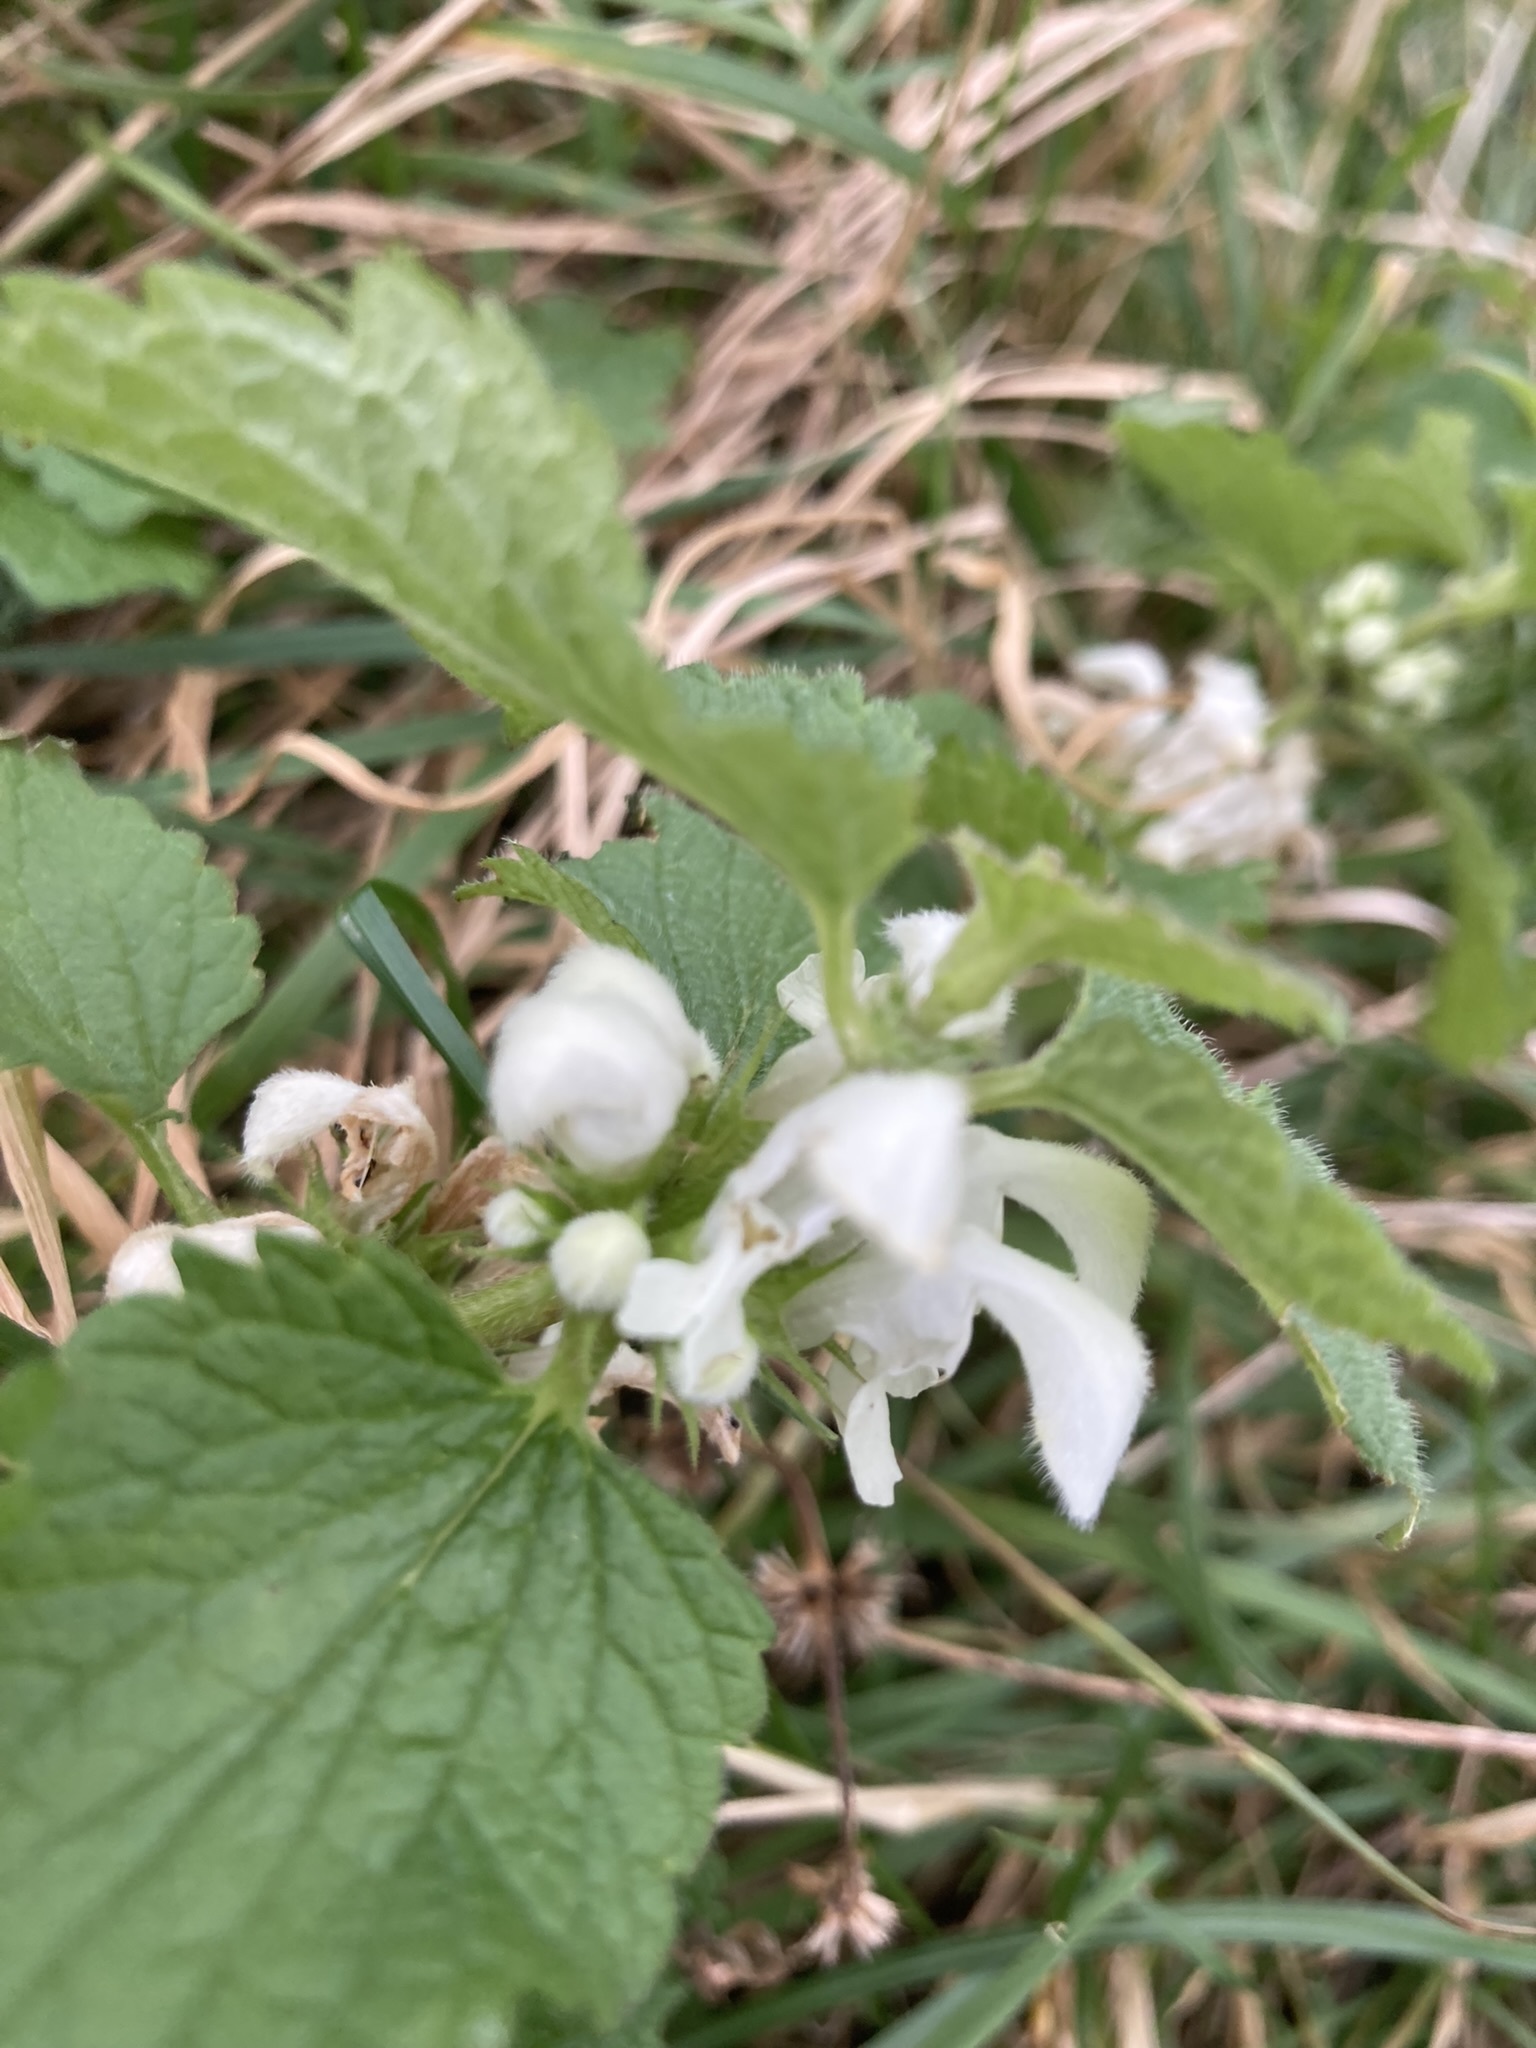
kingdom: Plantae
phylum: Tracheophyta
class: Magnoliopsida
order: Lamiales
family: Lamiaceae
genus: Lamium
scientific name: Lamium album
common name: White dead-nettle
